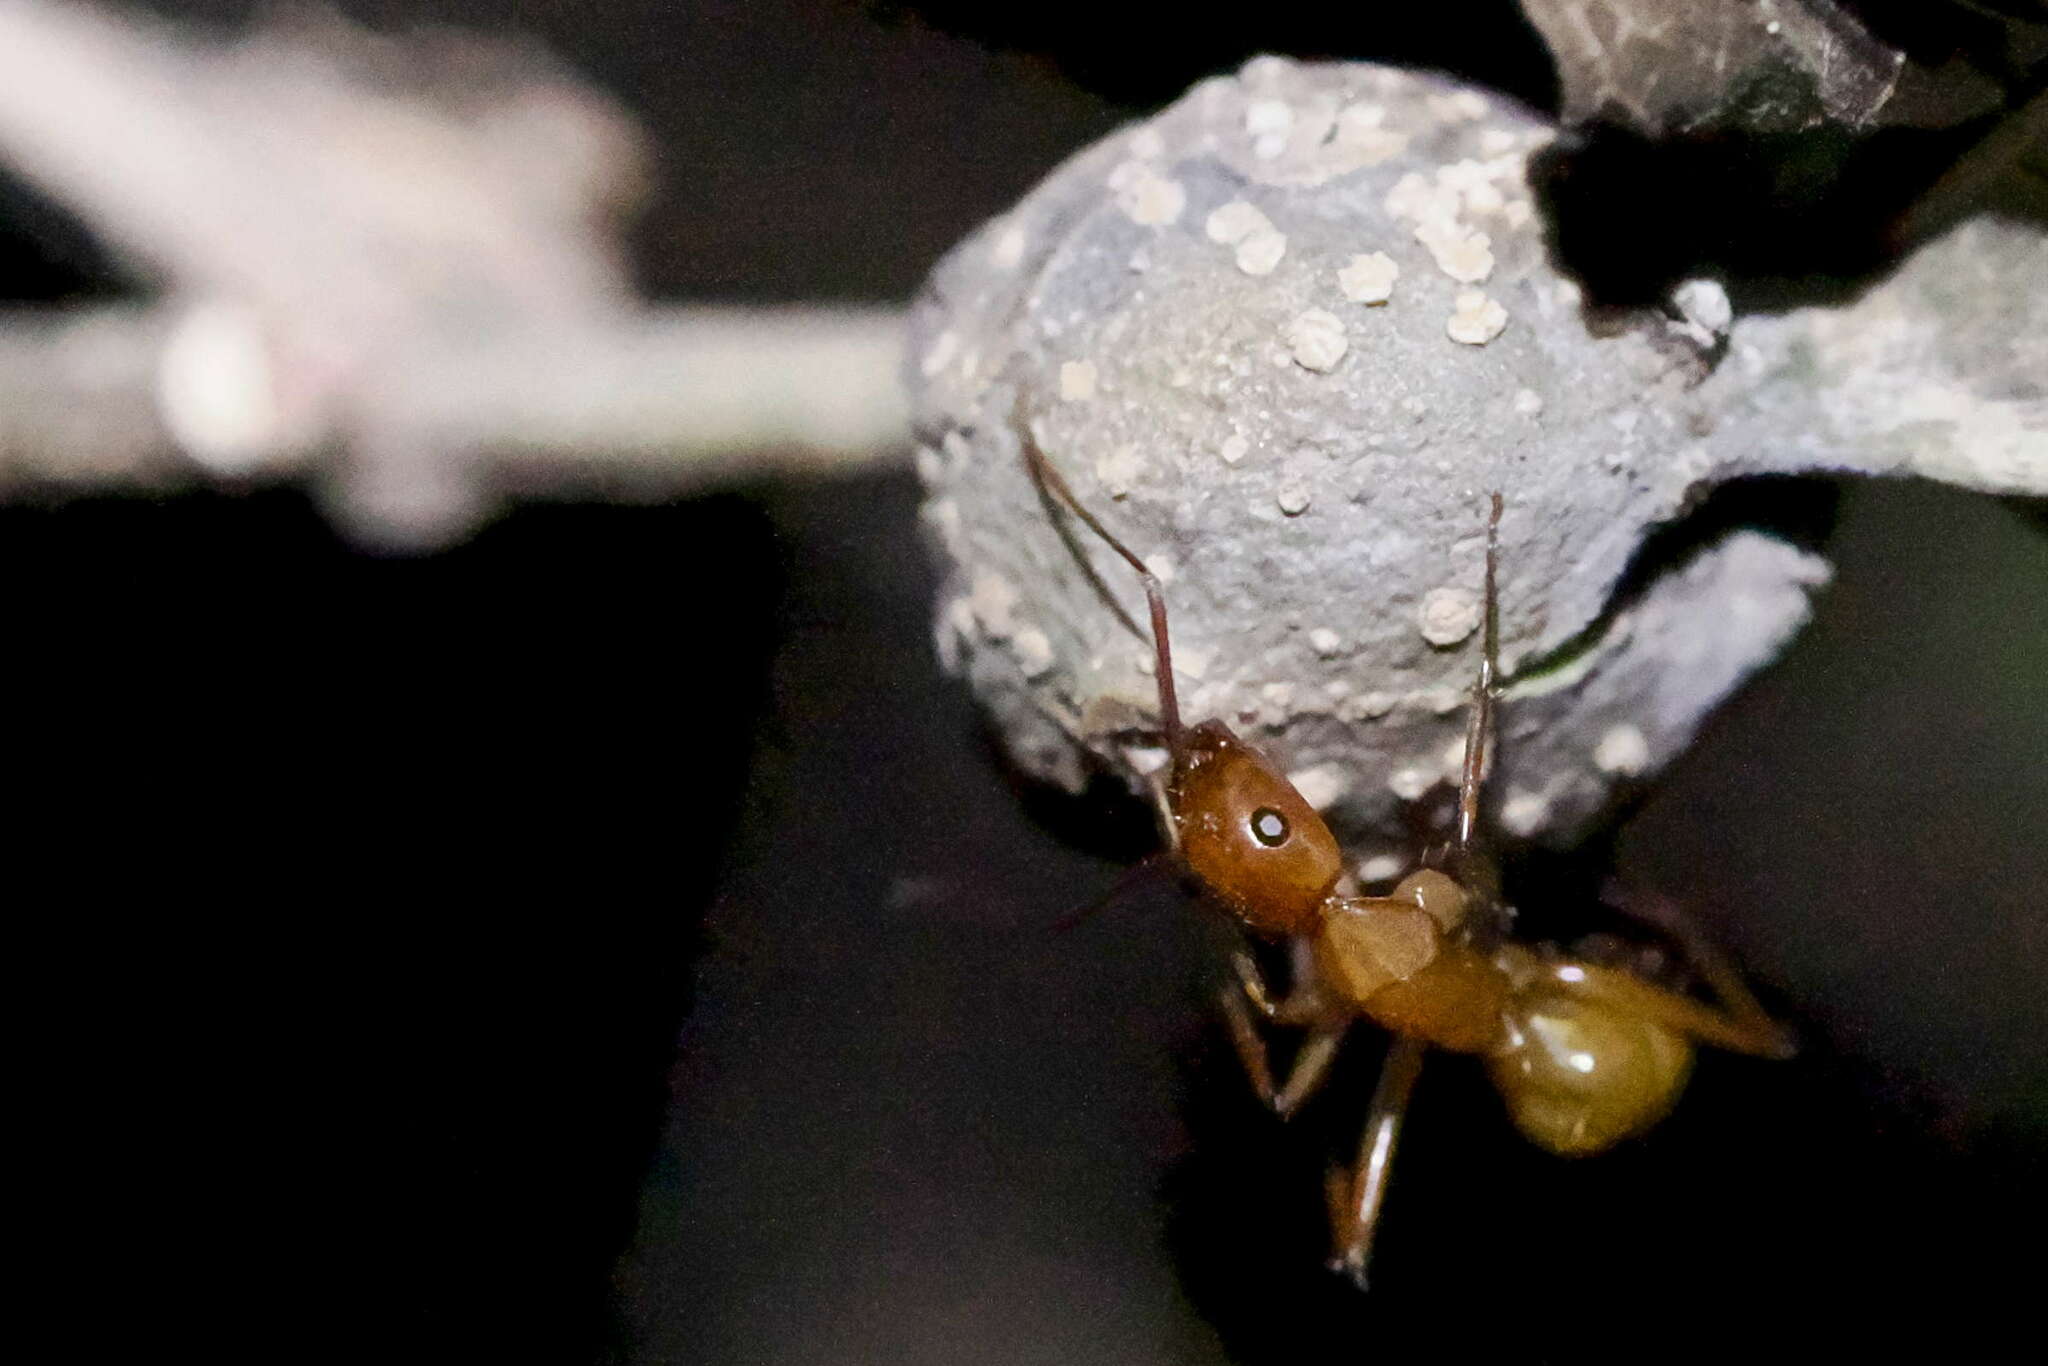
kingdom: Animalia
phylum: Arthropoda
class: Insecta
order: Hymenoptera
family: Formicidae
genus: Camponotus
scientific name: Camponotus castaneus
